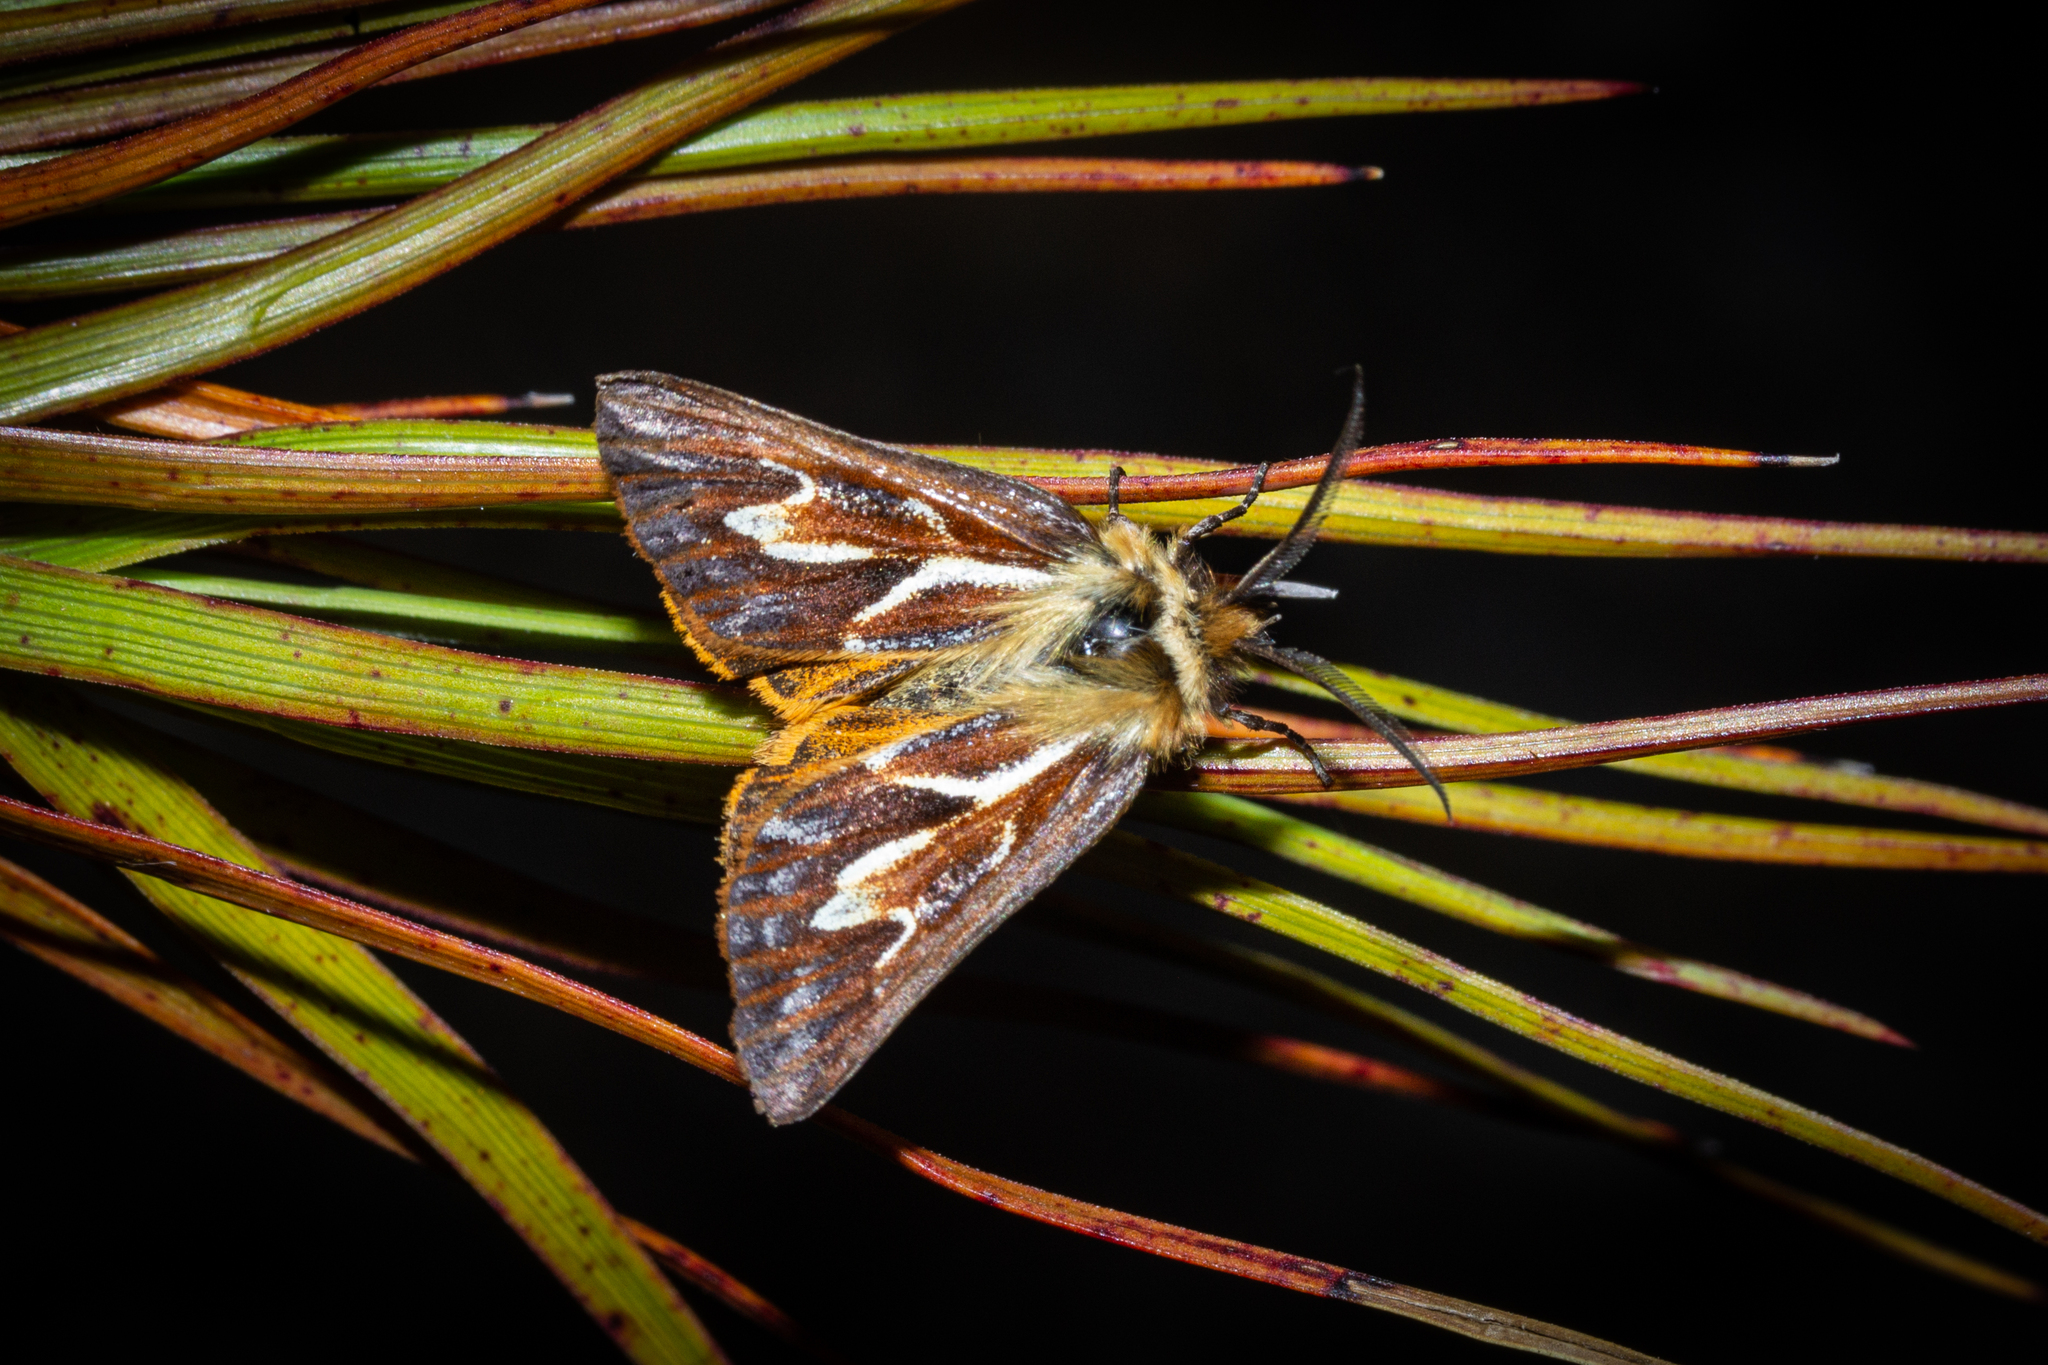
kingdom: Animalia
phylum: Arthropoda
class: Insecta
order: Lepidoptera
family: Geometridae
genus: Declana
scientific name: Declana
